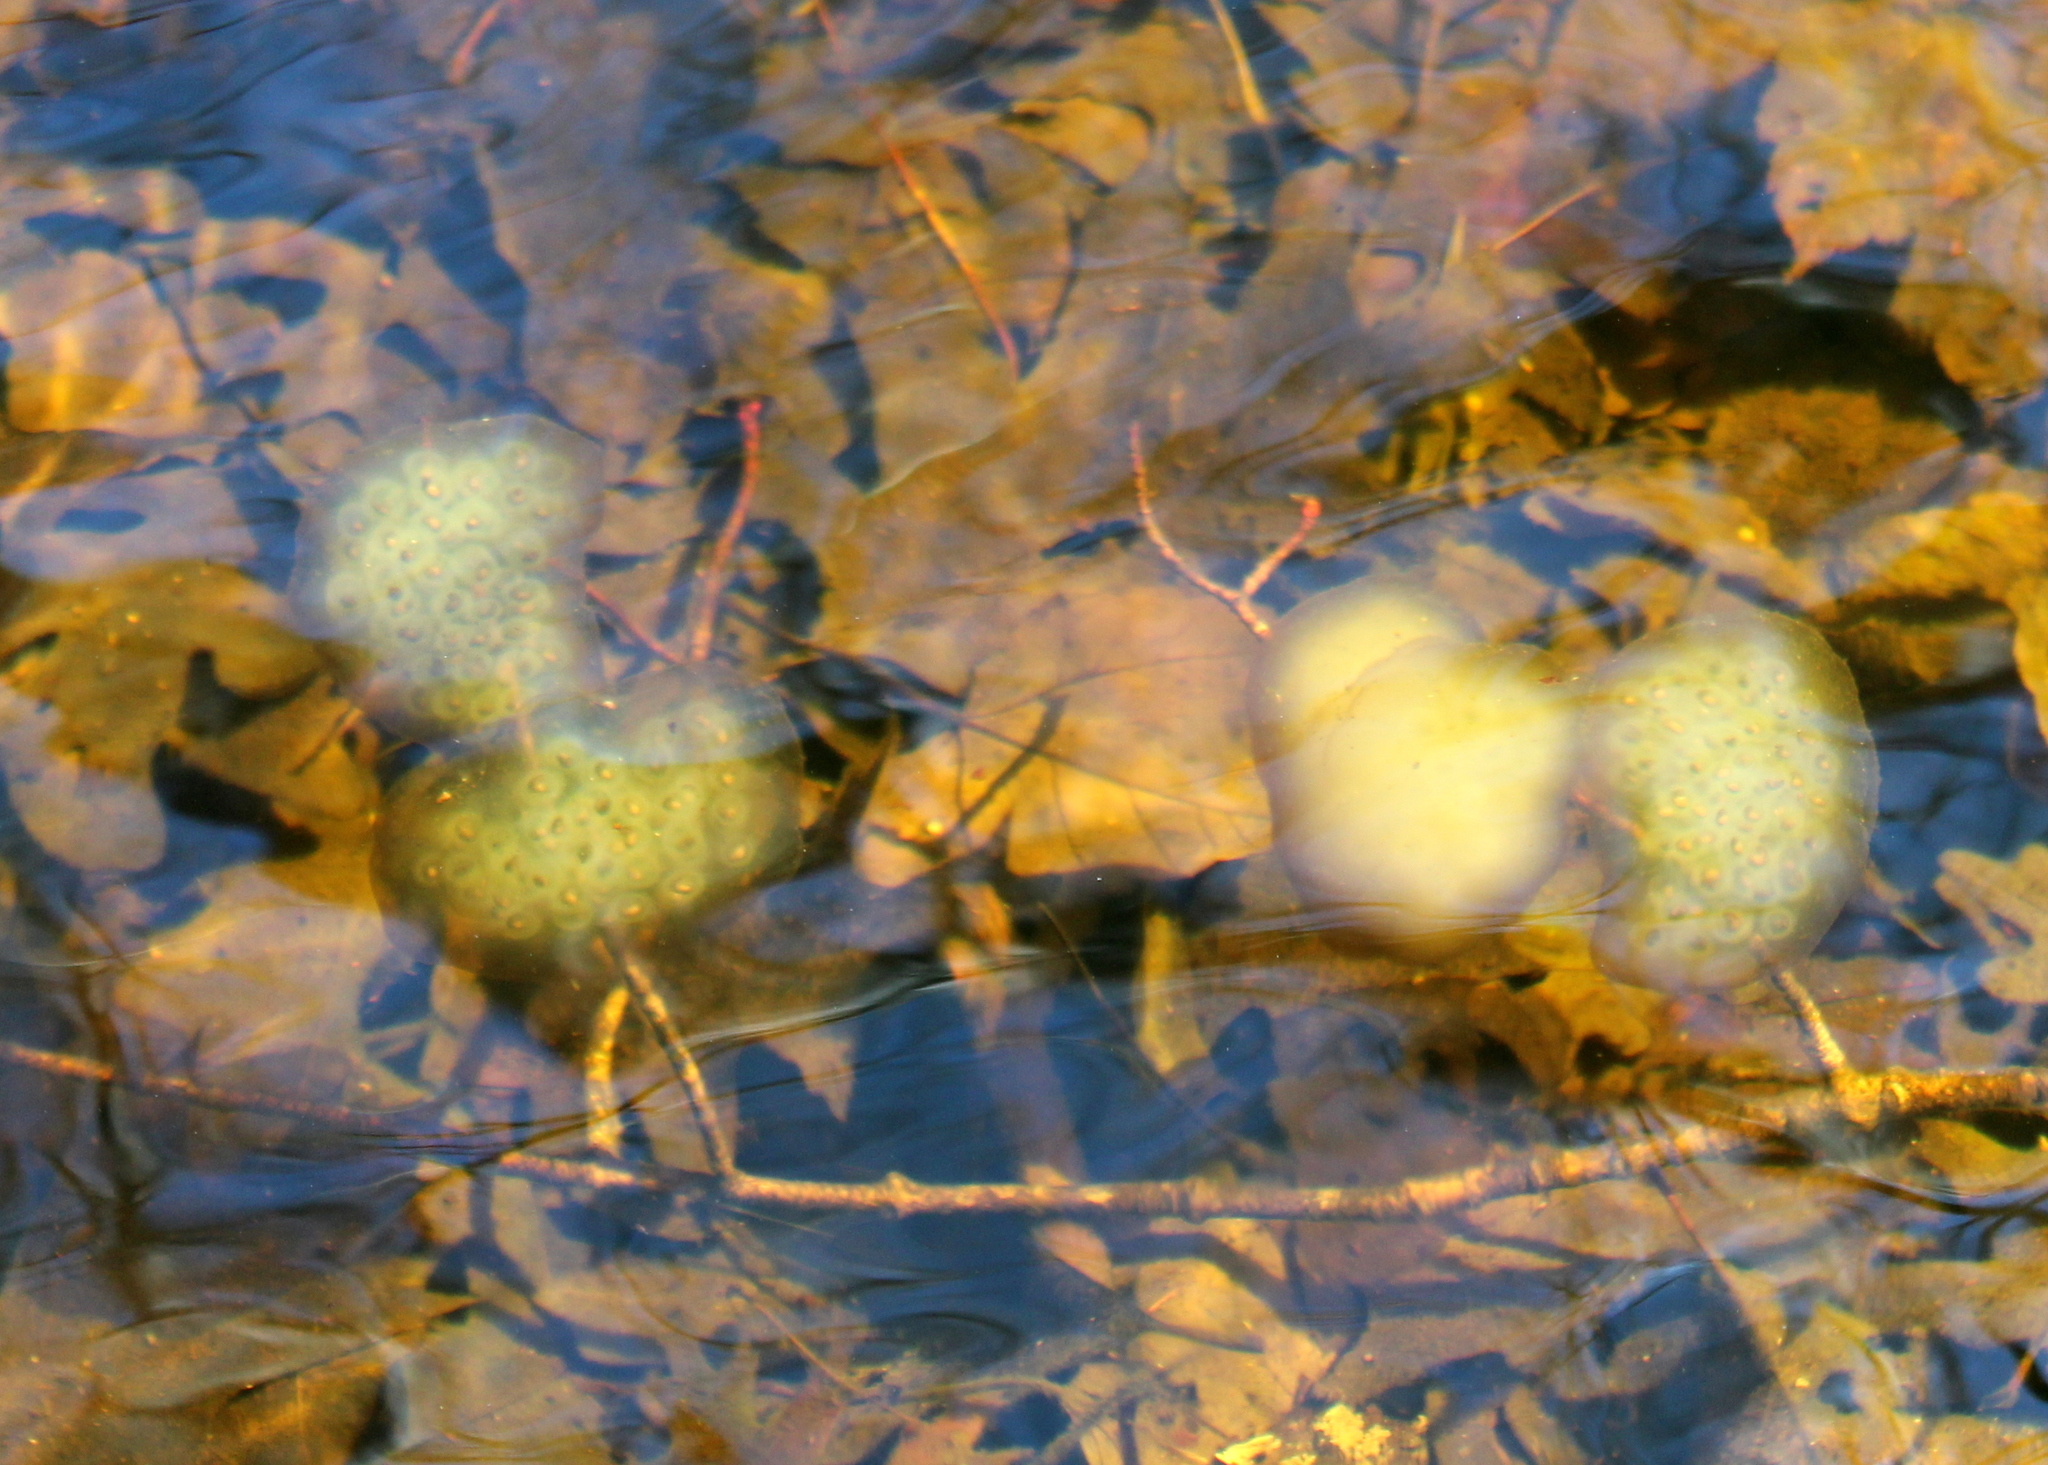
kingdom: Animalia
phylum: Chordata
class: Amphibia
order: Caudata
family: Ambystomatidae
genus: Ambystoma
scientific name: Ambystoma maculatum
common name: Spotted salamander
